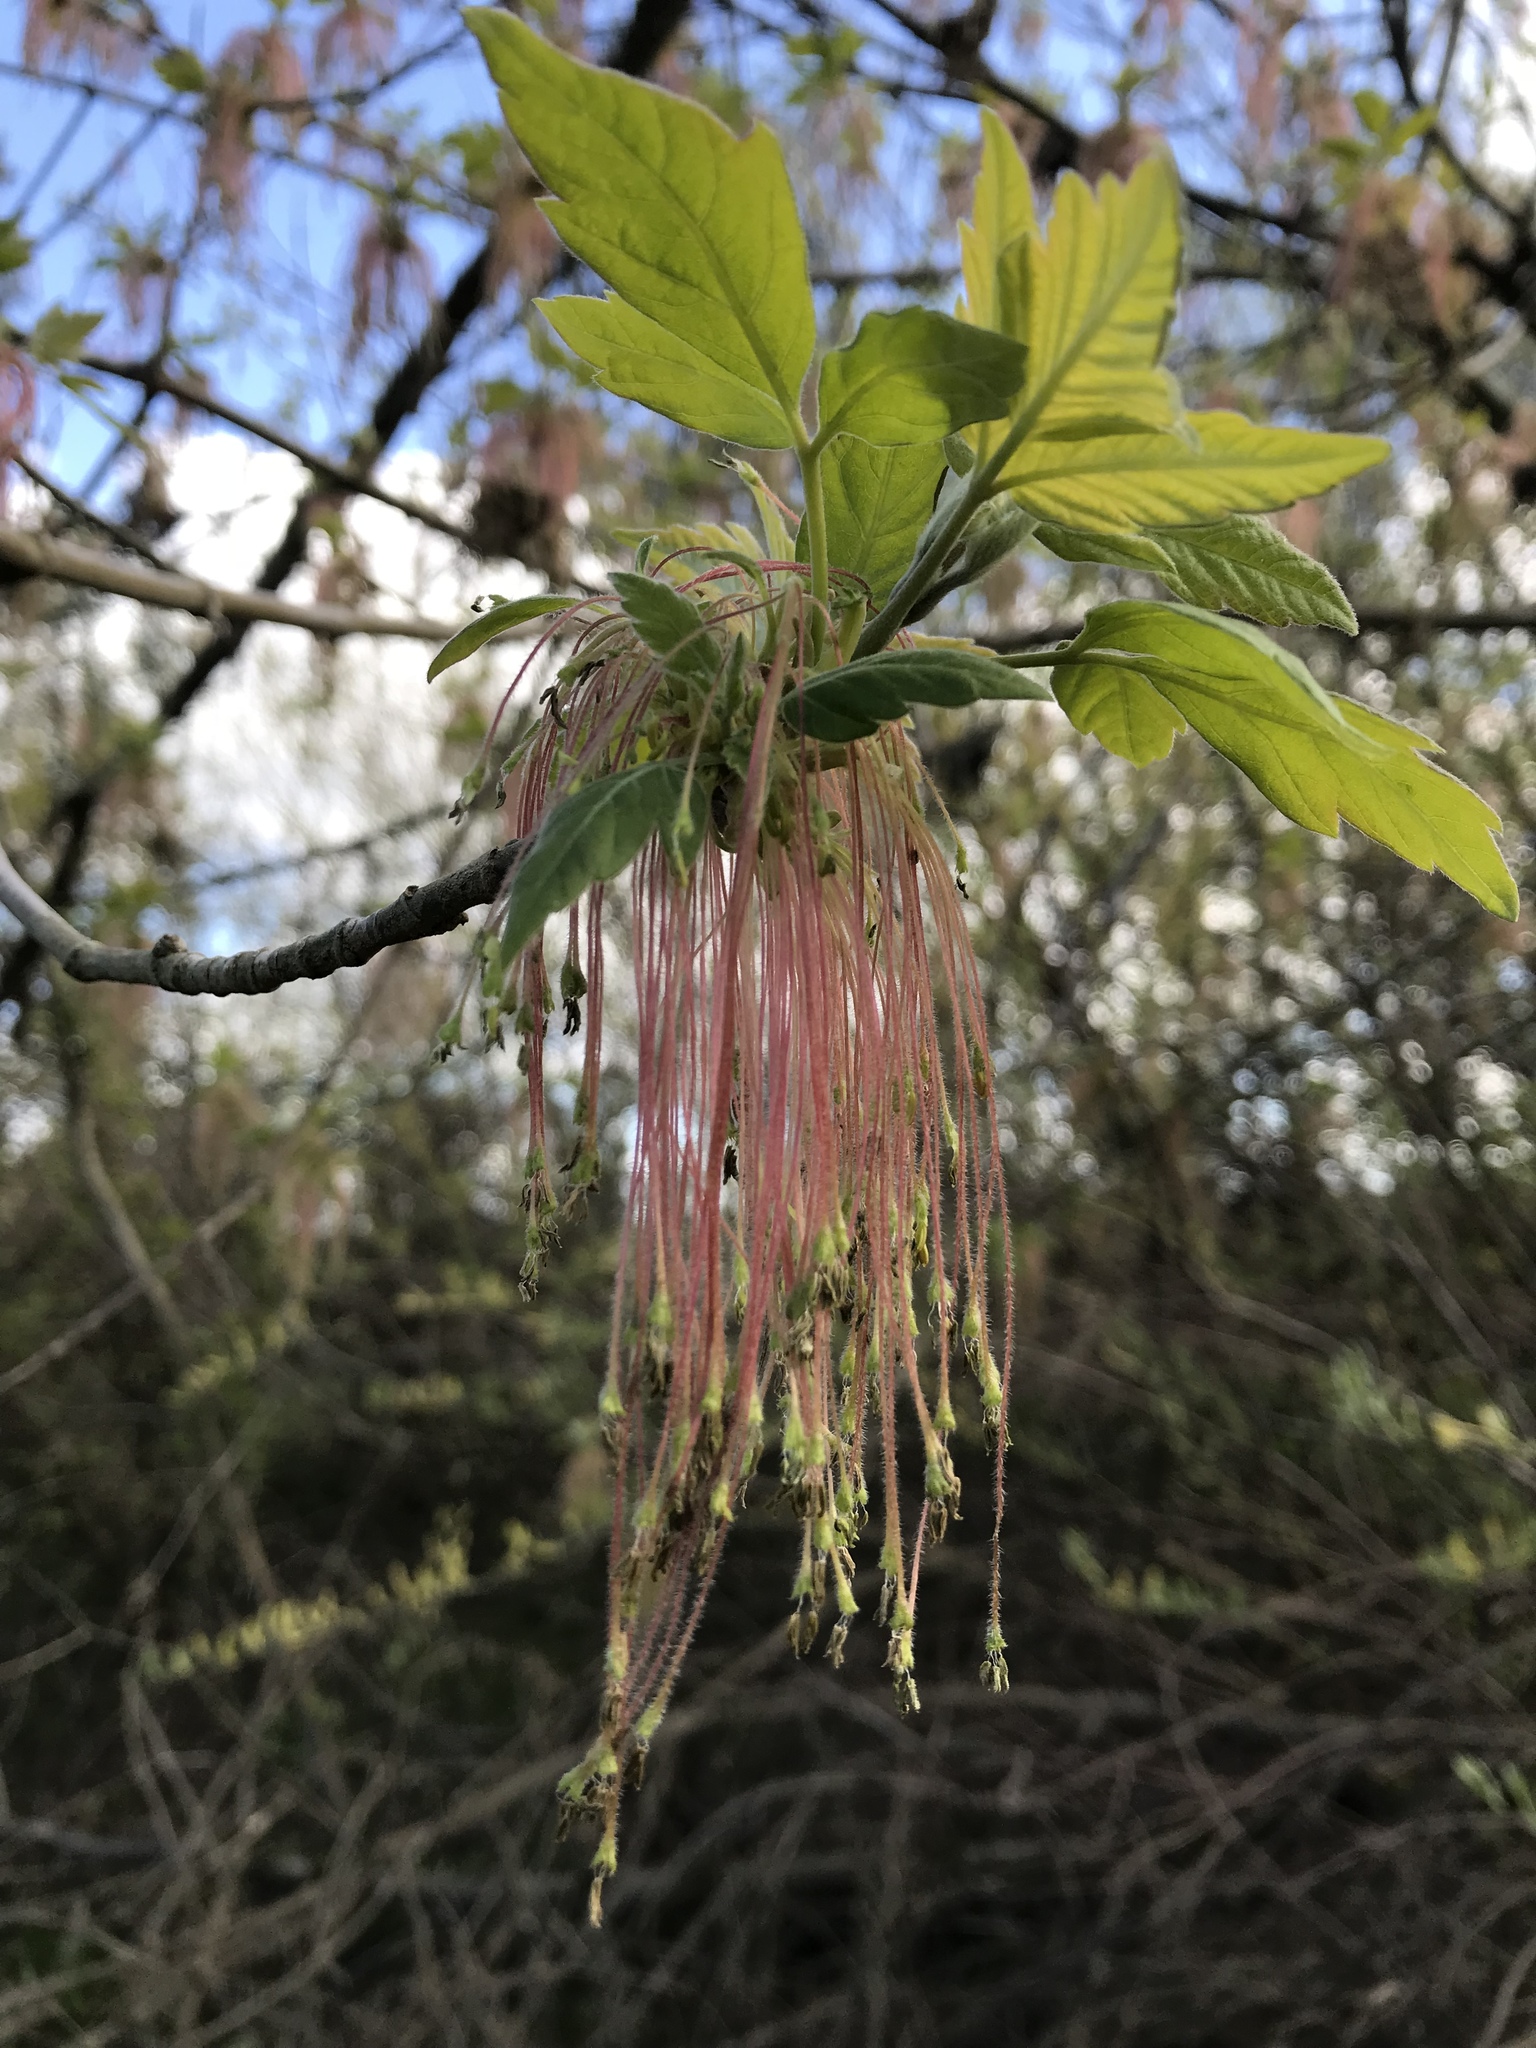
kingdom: Plantae
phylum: Tracheophyta
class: Magnoliopsida
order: Sapindales
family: Sapindaceae
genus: Acer
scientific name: Acer negundo
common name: Ashleaf maple
